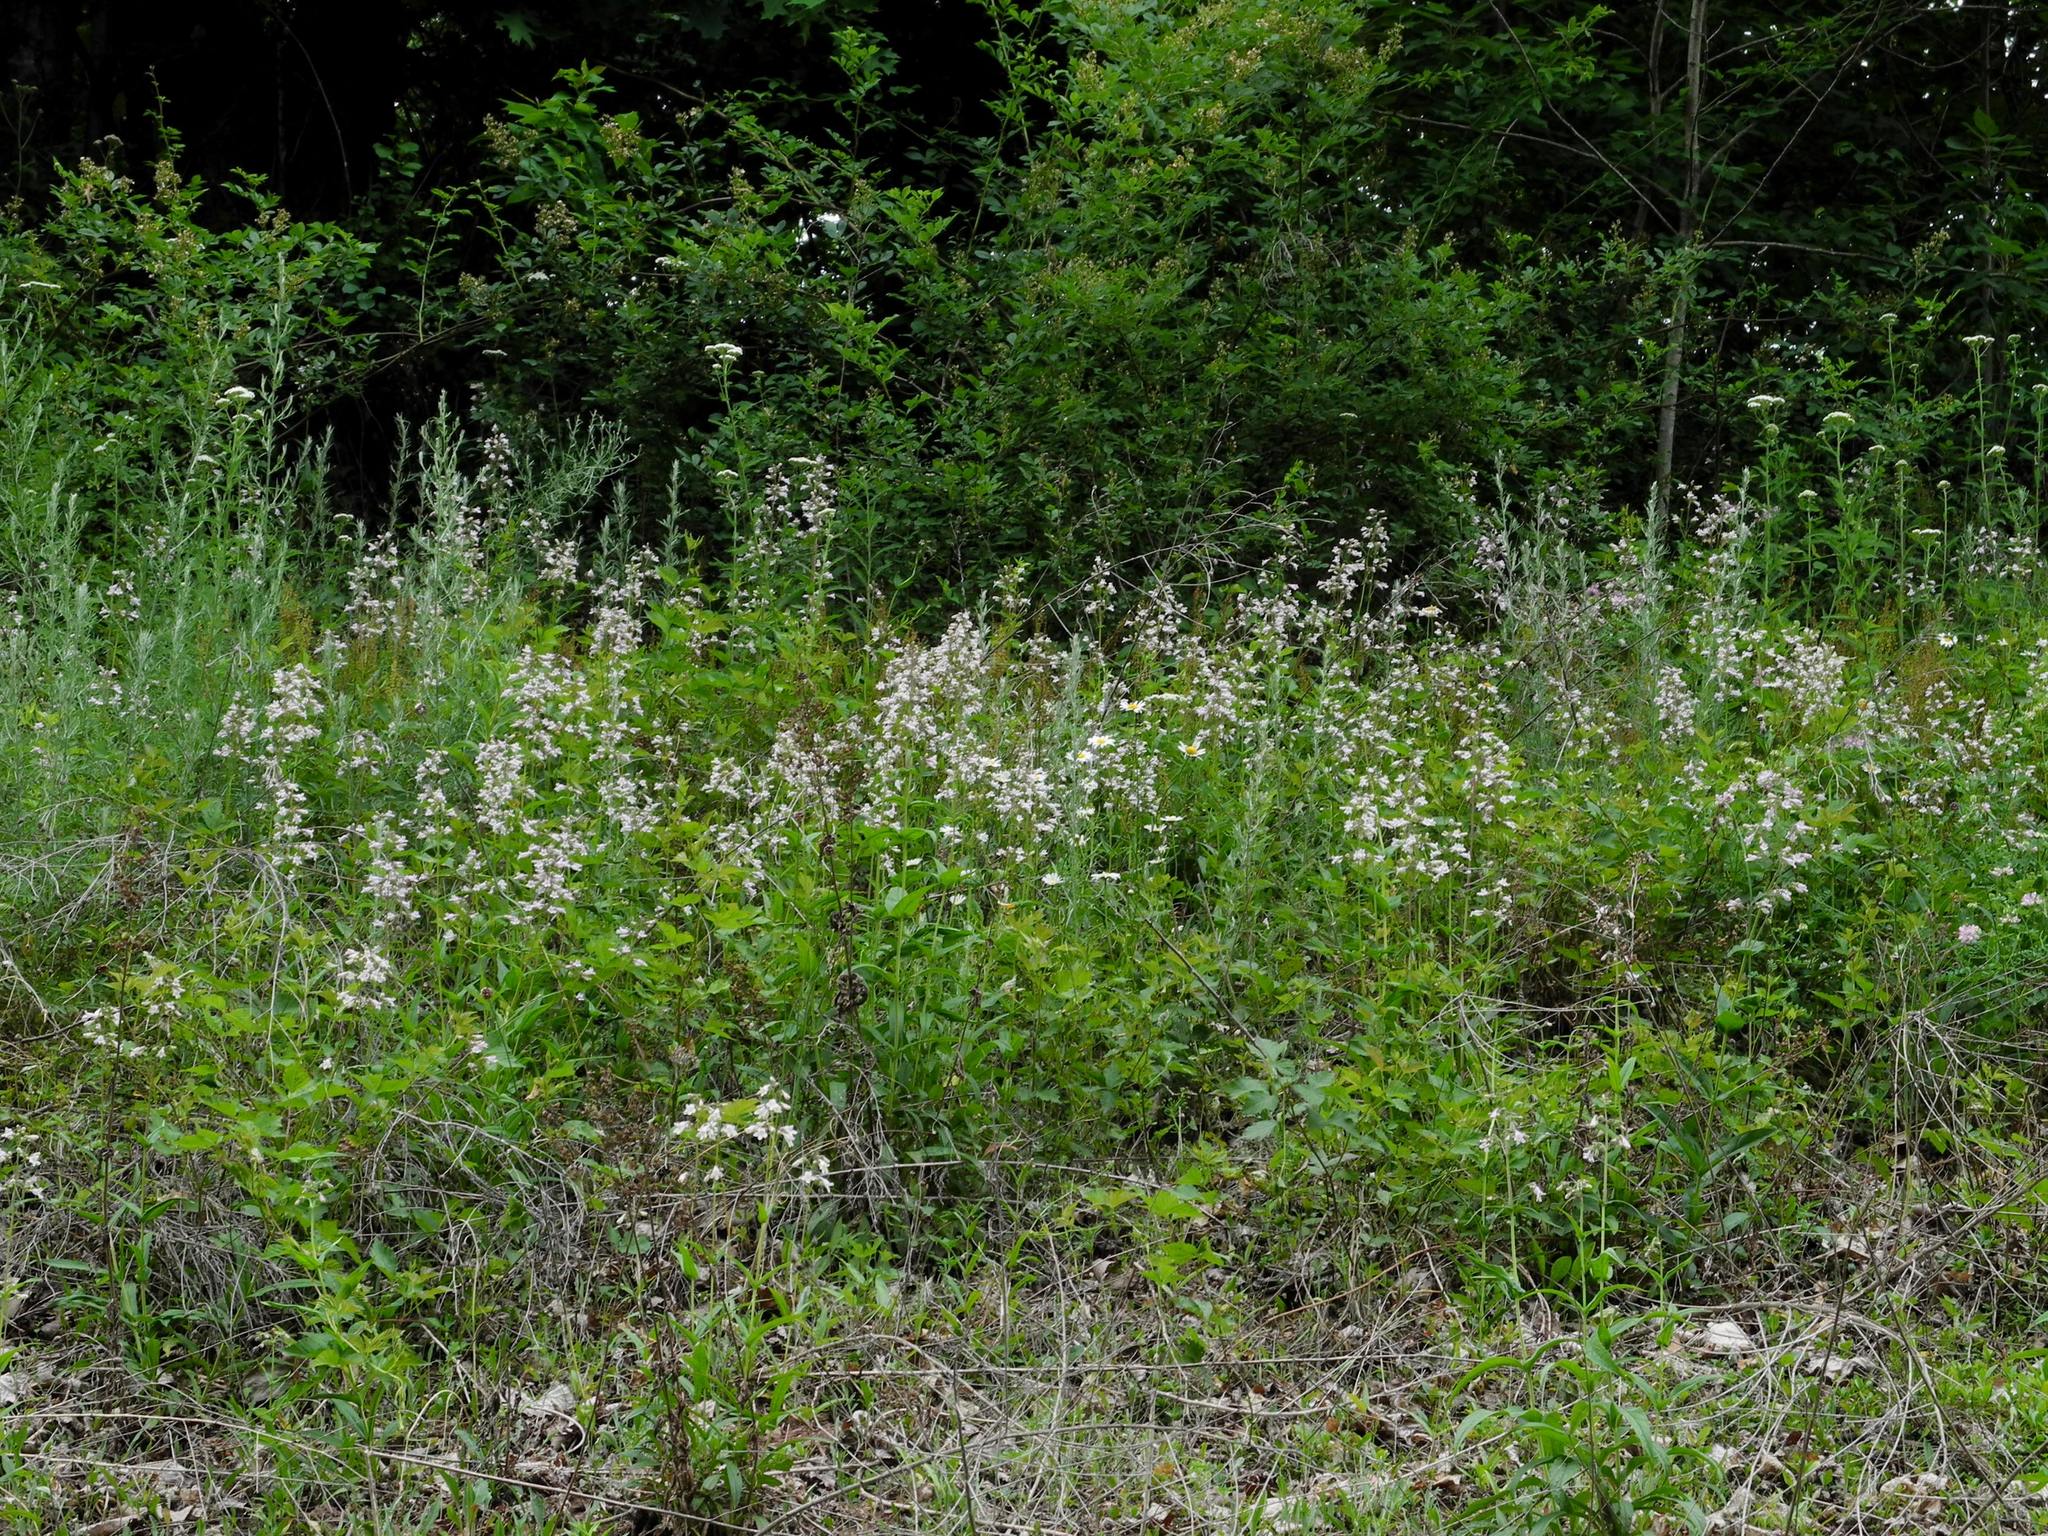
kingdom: Plantae
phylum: Tracheophyta
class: Magnoliopsida
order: Lamiales
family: Plantaginaceae
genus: Penstemon
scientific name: Penstemon laevigatus
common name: Eastern beardtongue
